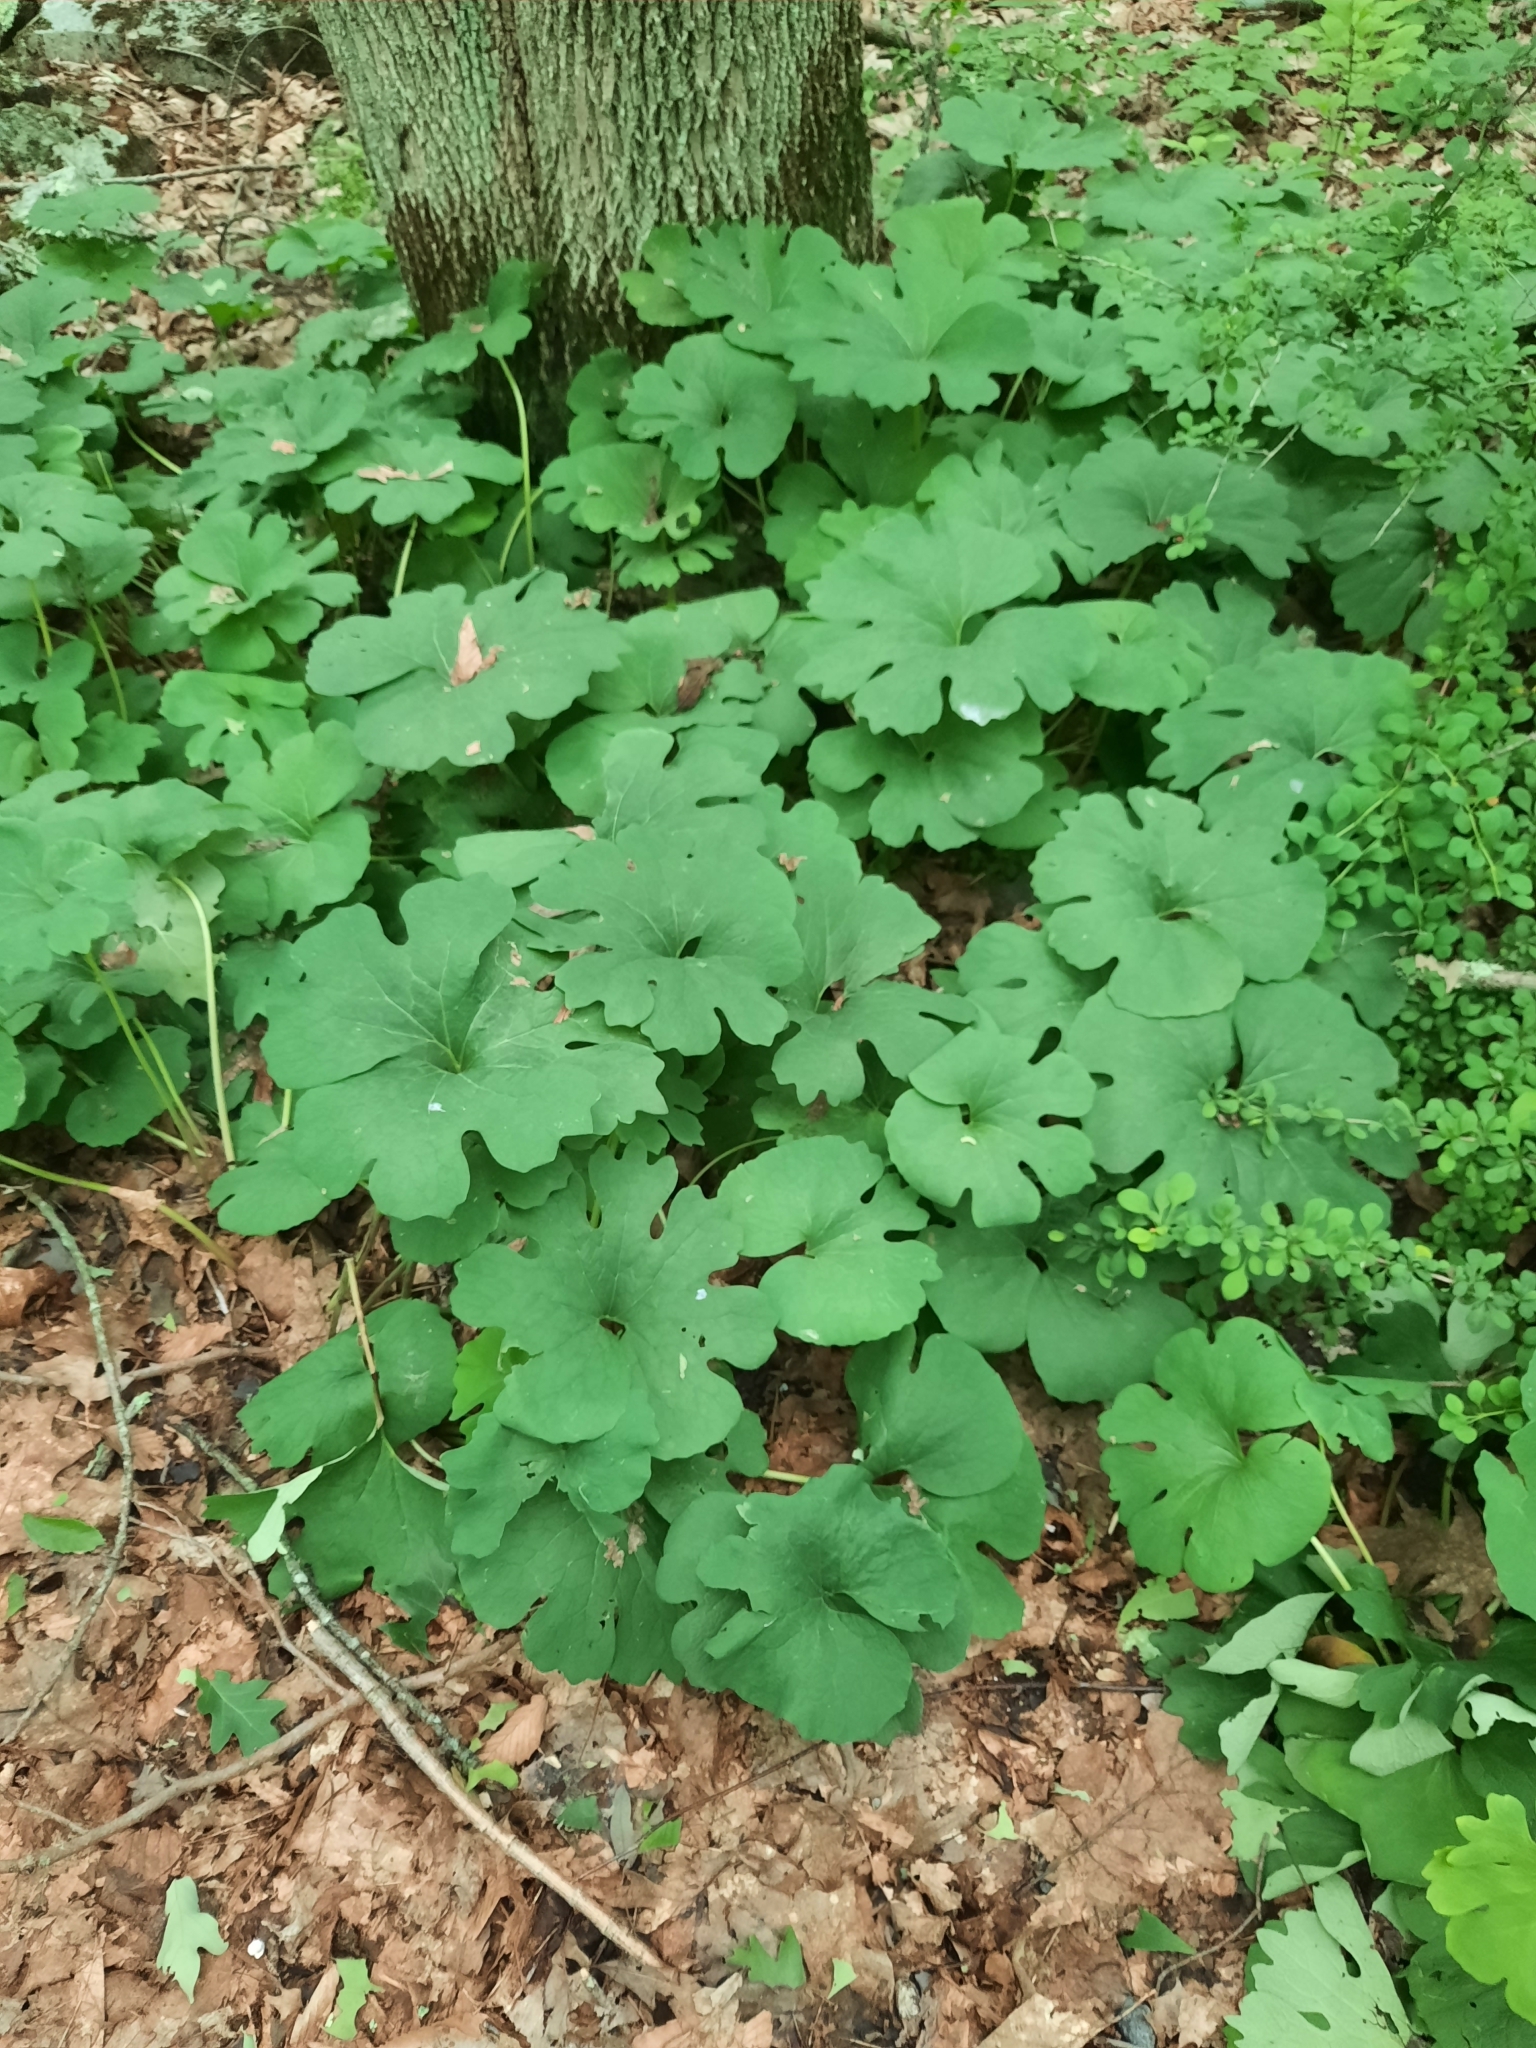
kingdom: Plantae
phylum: Tracheophyta
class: Magnoliopsida
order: Ranunculales
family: Papaveraceae
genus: Sanguinaria
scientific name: Sanguinaria canadensis
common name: Bloodroot
